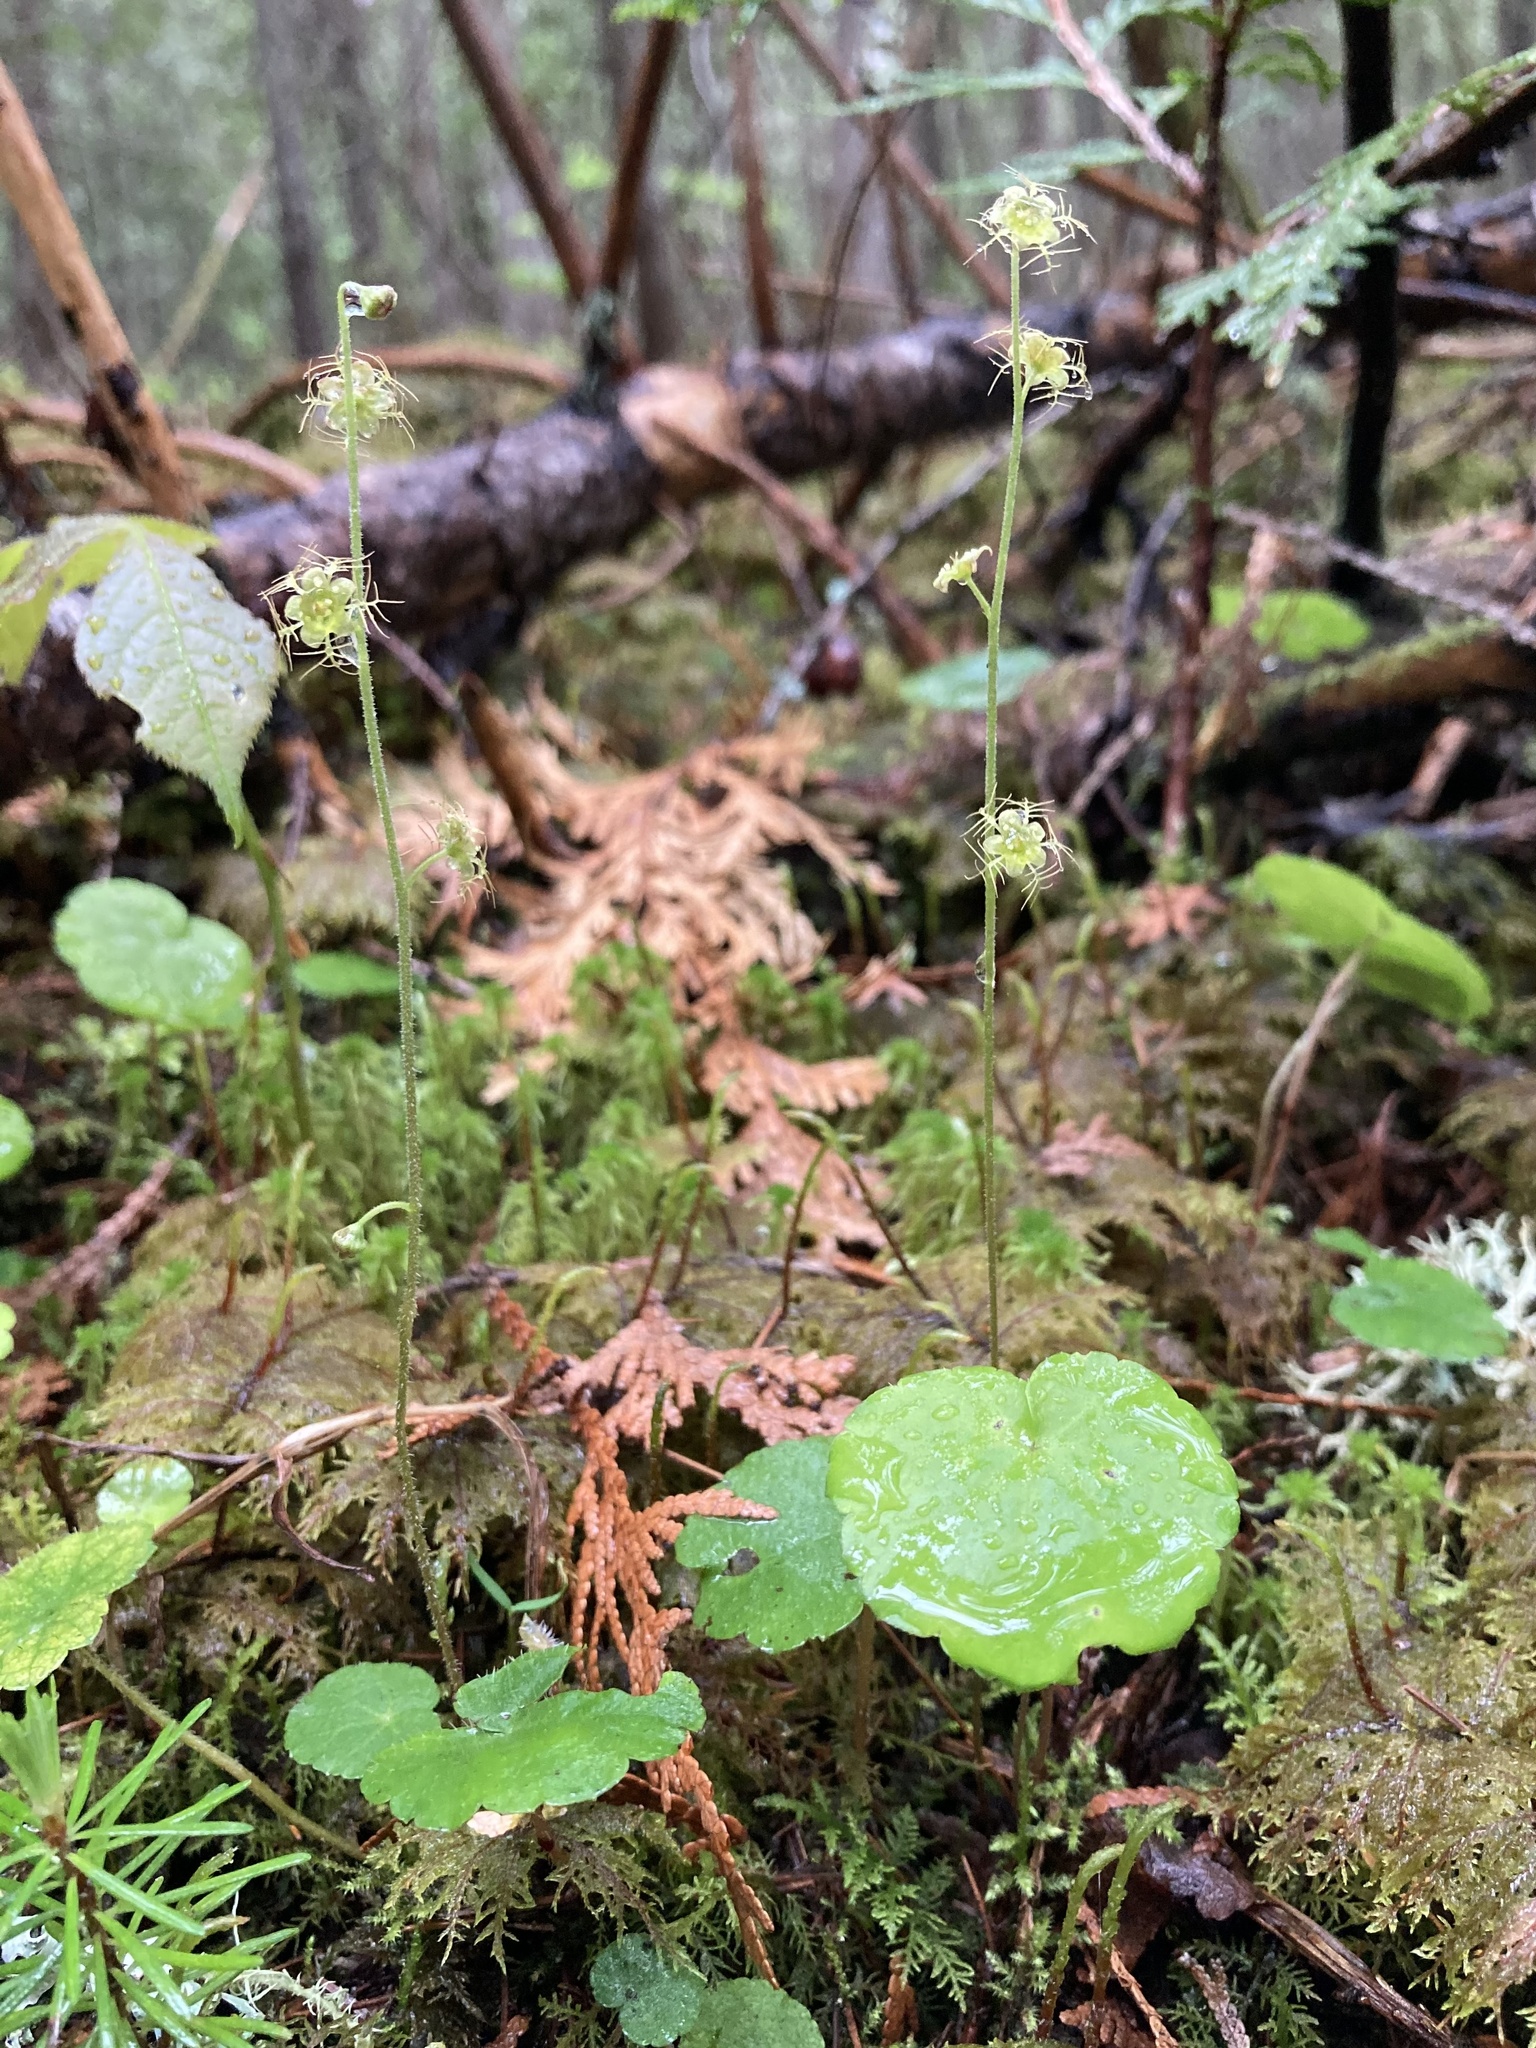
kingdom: Plantae
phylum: Tracheophyta
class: Magnoliopsida
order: Saxifragales
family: Saxifragaceae
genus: Mitella
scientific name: Mitella nuda
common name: Bare-stemmed bishop's-cap
